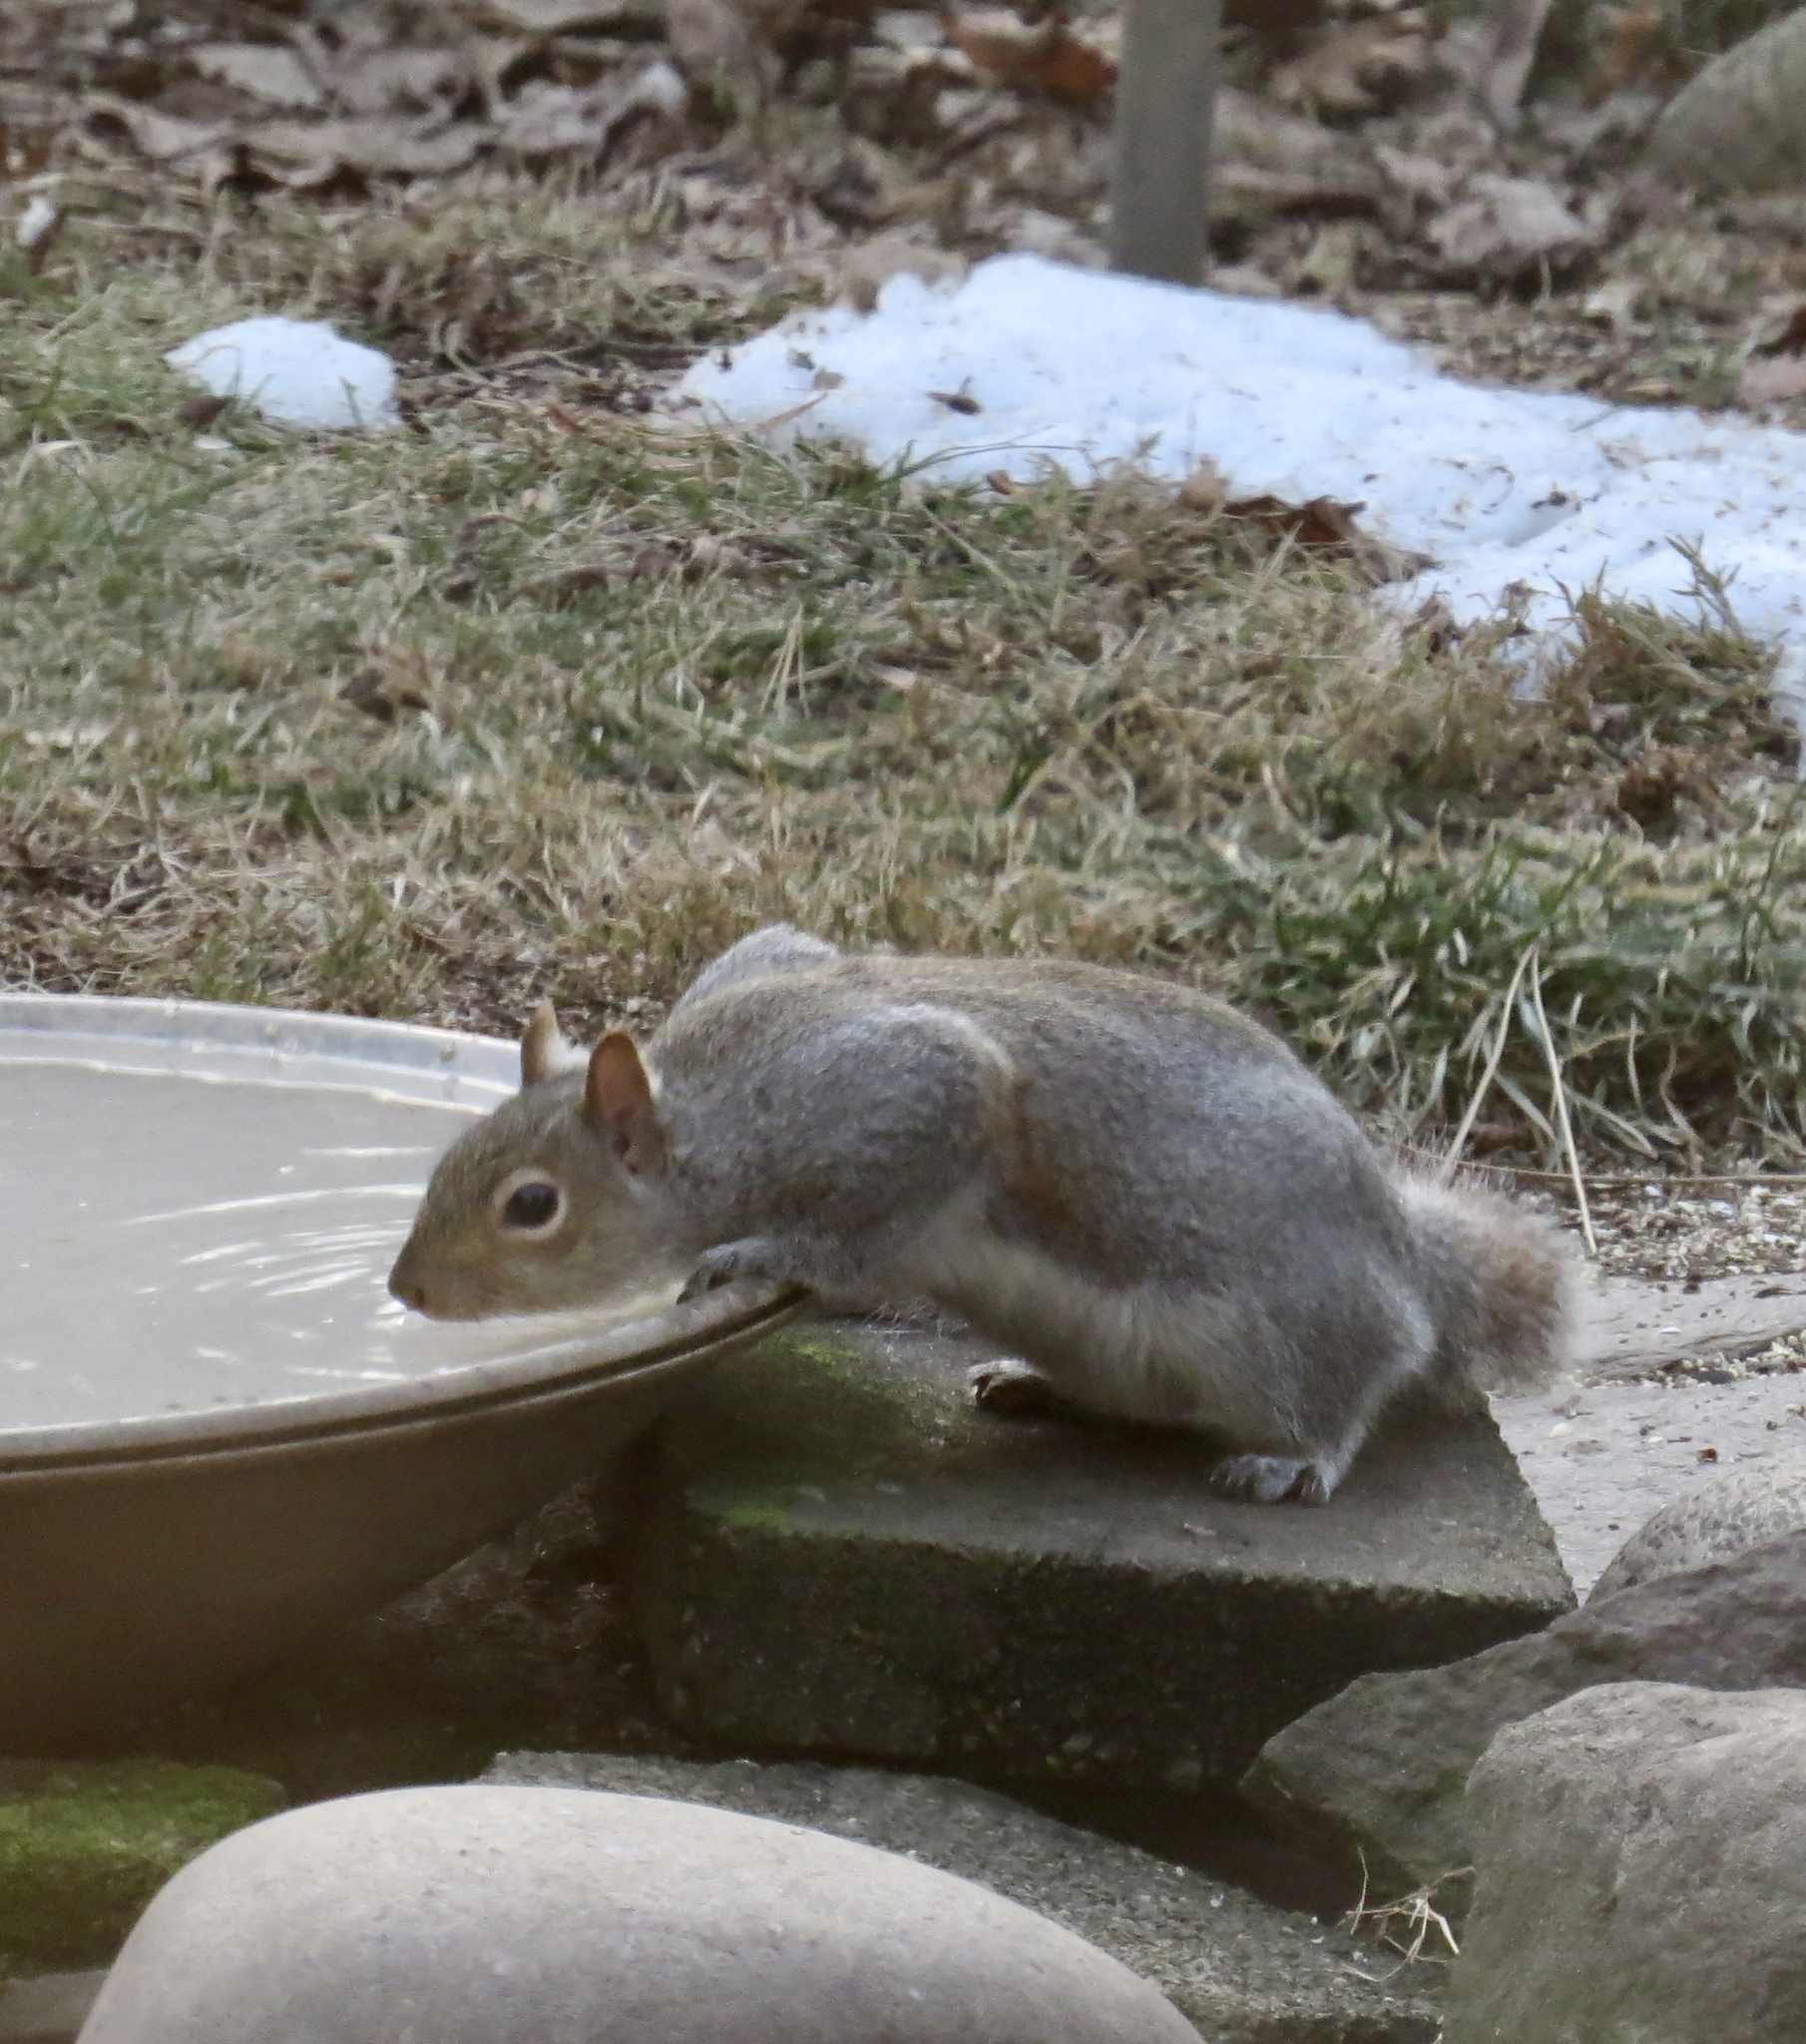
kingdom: Animalia
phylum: Chordata
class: Mammalia
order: Rodentia
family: Sciuridae
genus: Sciurus
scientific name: Sciurus carolinensis
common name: Eastern gray squirrel
